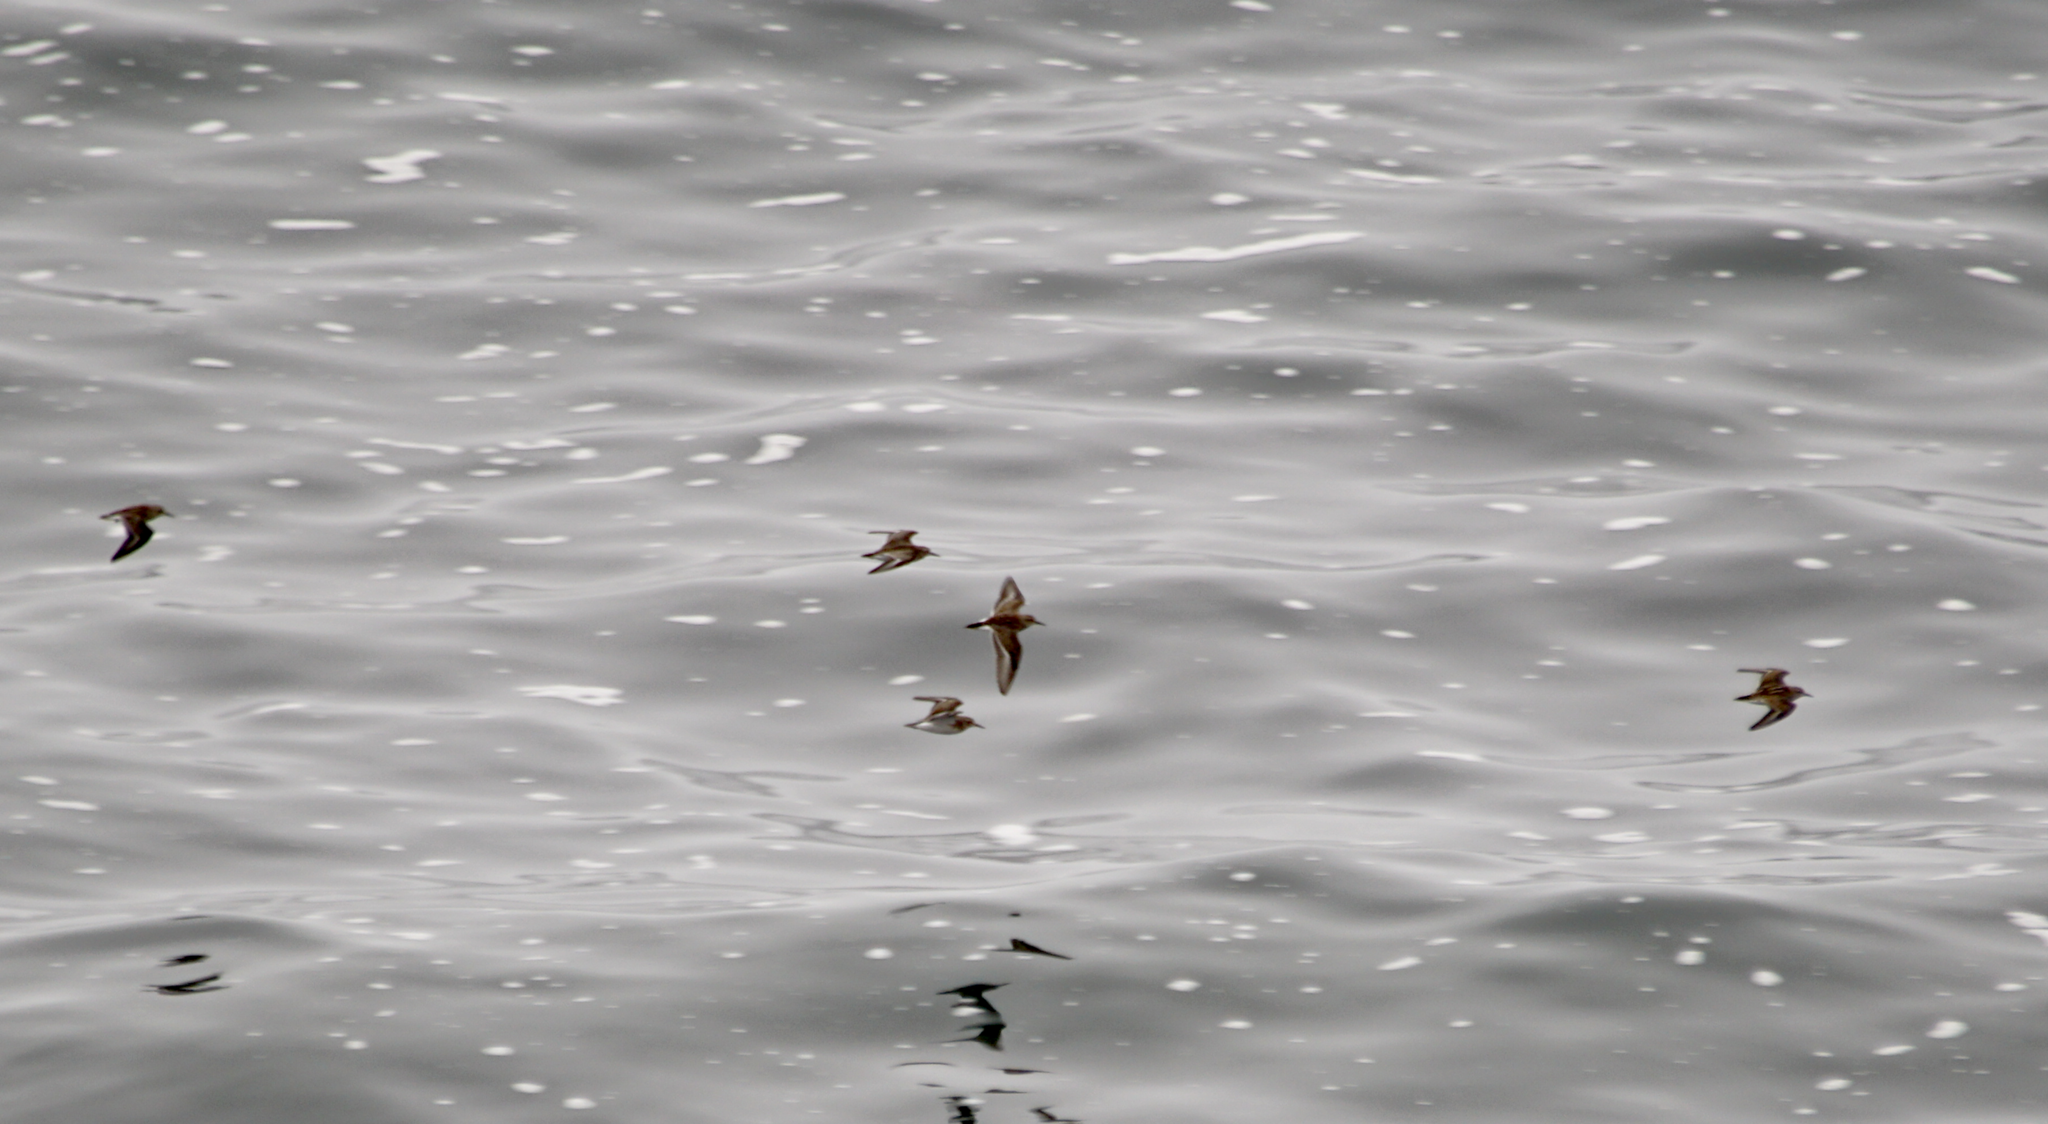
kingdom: Animalia
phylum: Chordata
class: Aves
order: Charadriiformes
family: Scolopacidae
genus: Calidris
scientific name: Calidris minutilla
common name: Least sandpiper
